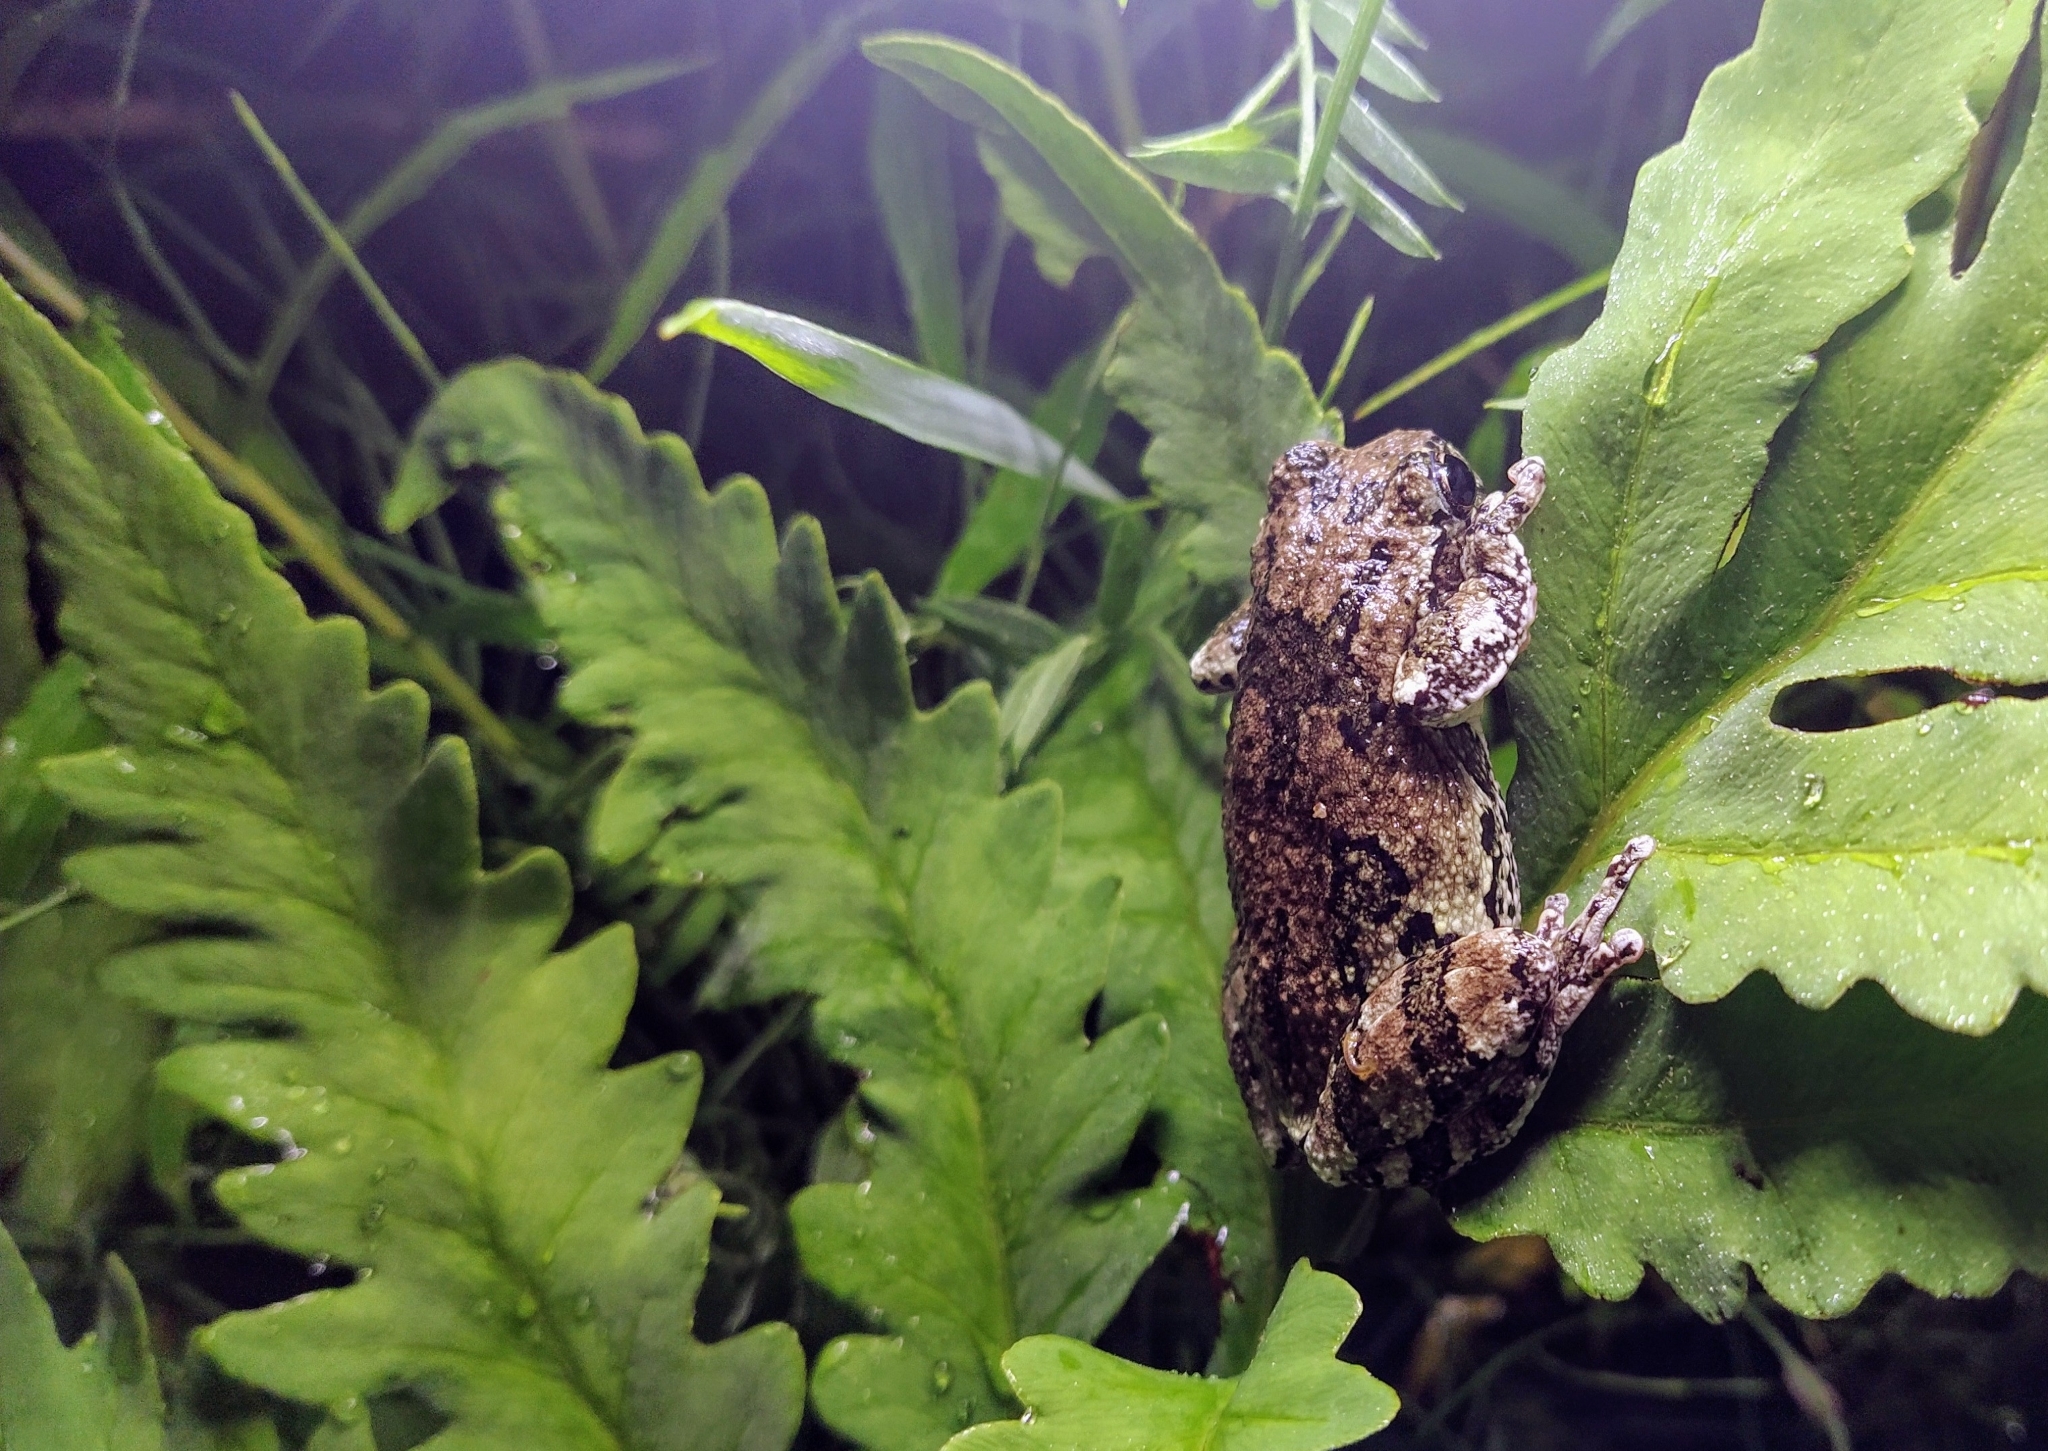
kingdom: Animalia
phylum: Chordata
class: Amphibia
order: Anura
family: Hylidae
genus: Dryophytes
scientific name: Dryophytes versicolor
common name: Gray treefrog
